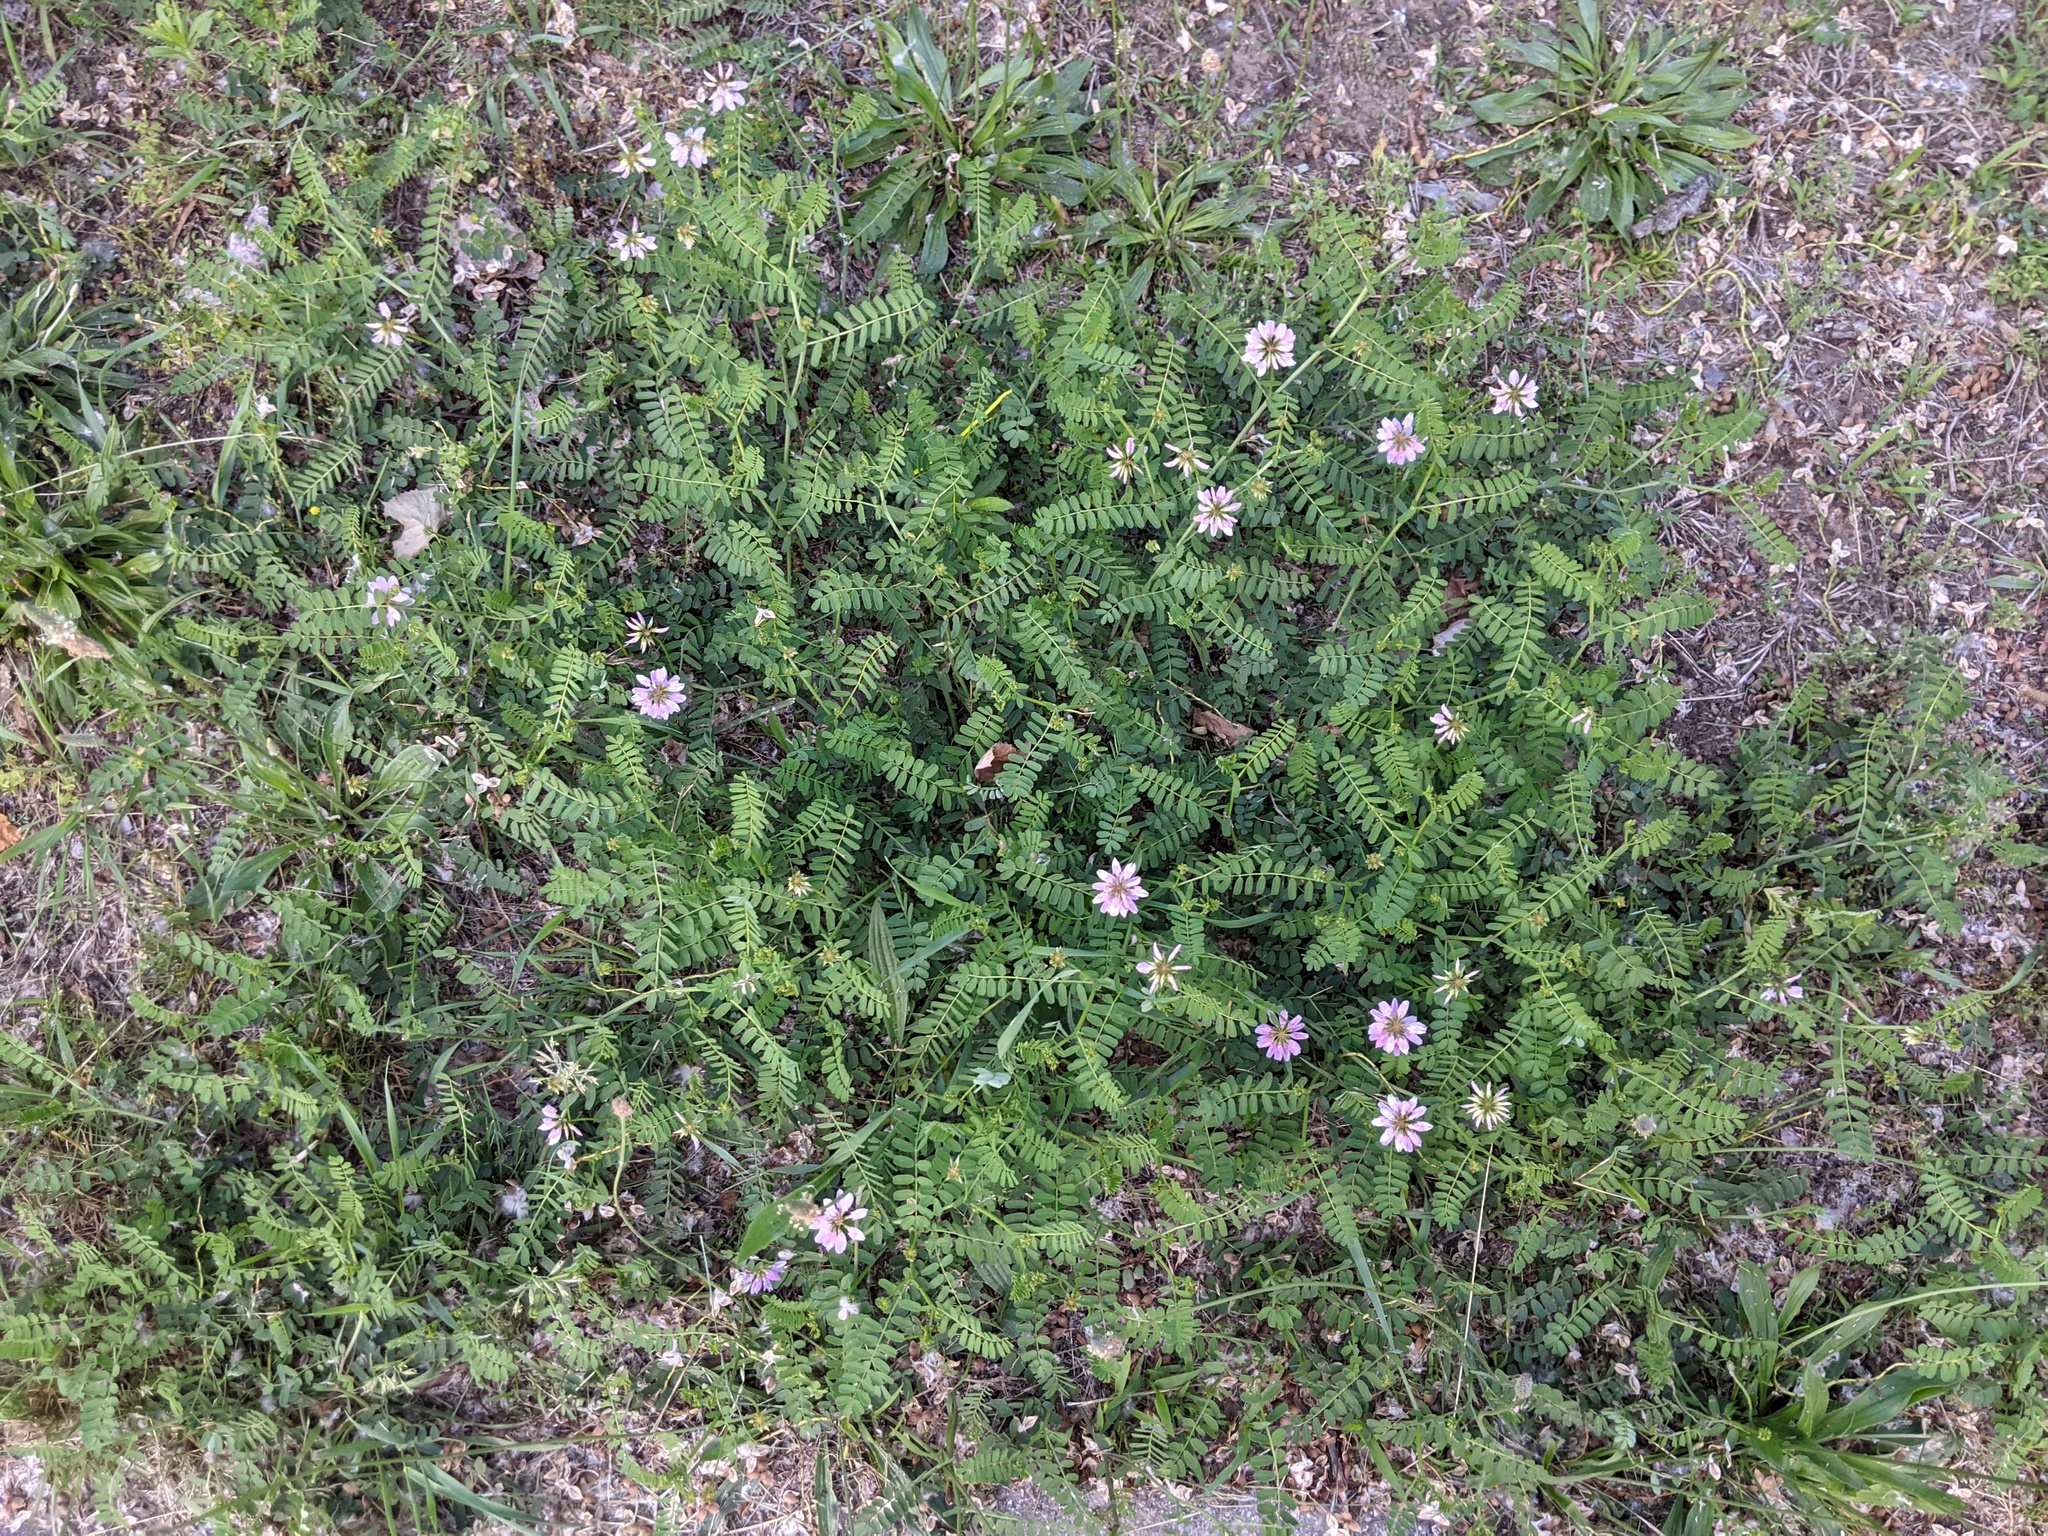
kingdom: Plantae
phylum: Tracheophyta
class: Magnoliopsida
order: Fabales
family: Fabaceae
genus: Coronilla
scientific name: Coronilla varia
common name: Crownvetch
